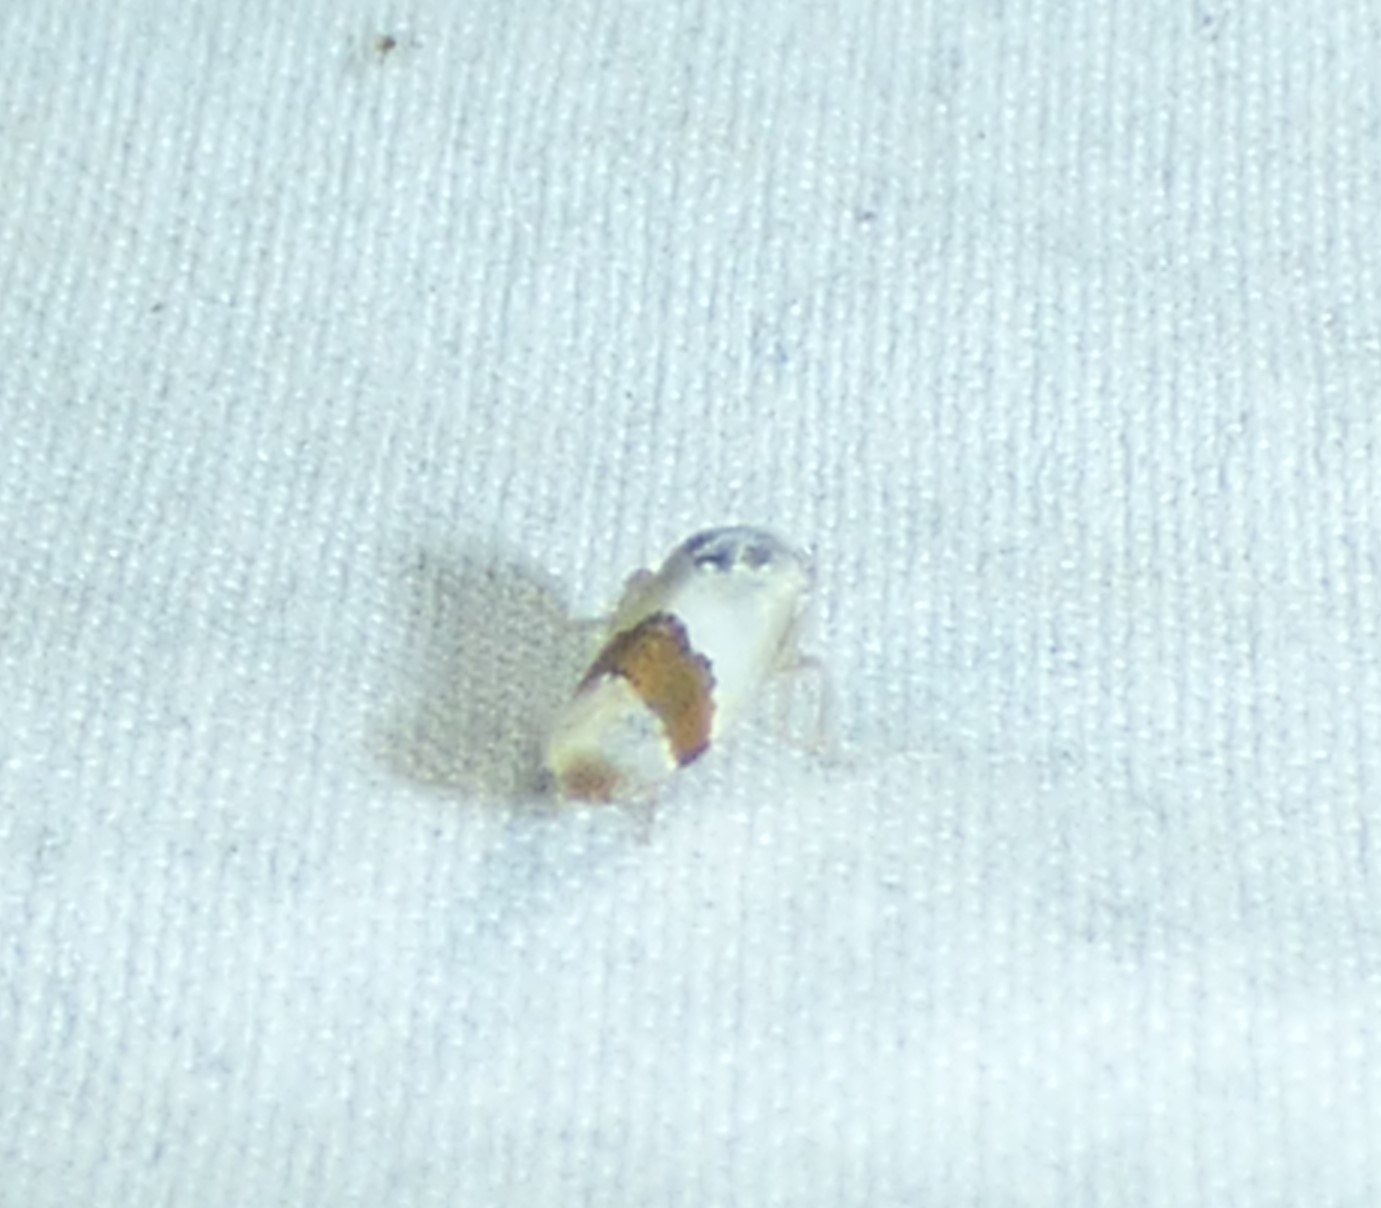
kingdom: Animalia
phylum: Arthropoda
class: Insecta
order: Hemiptera
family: Cicadellidae
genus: Norvellina
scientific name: Norvellina seminuda
